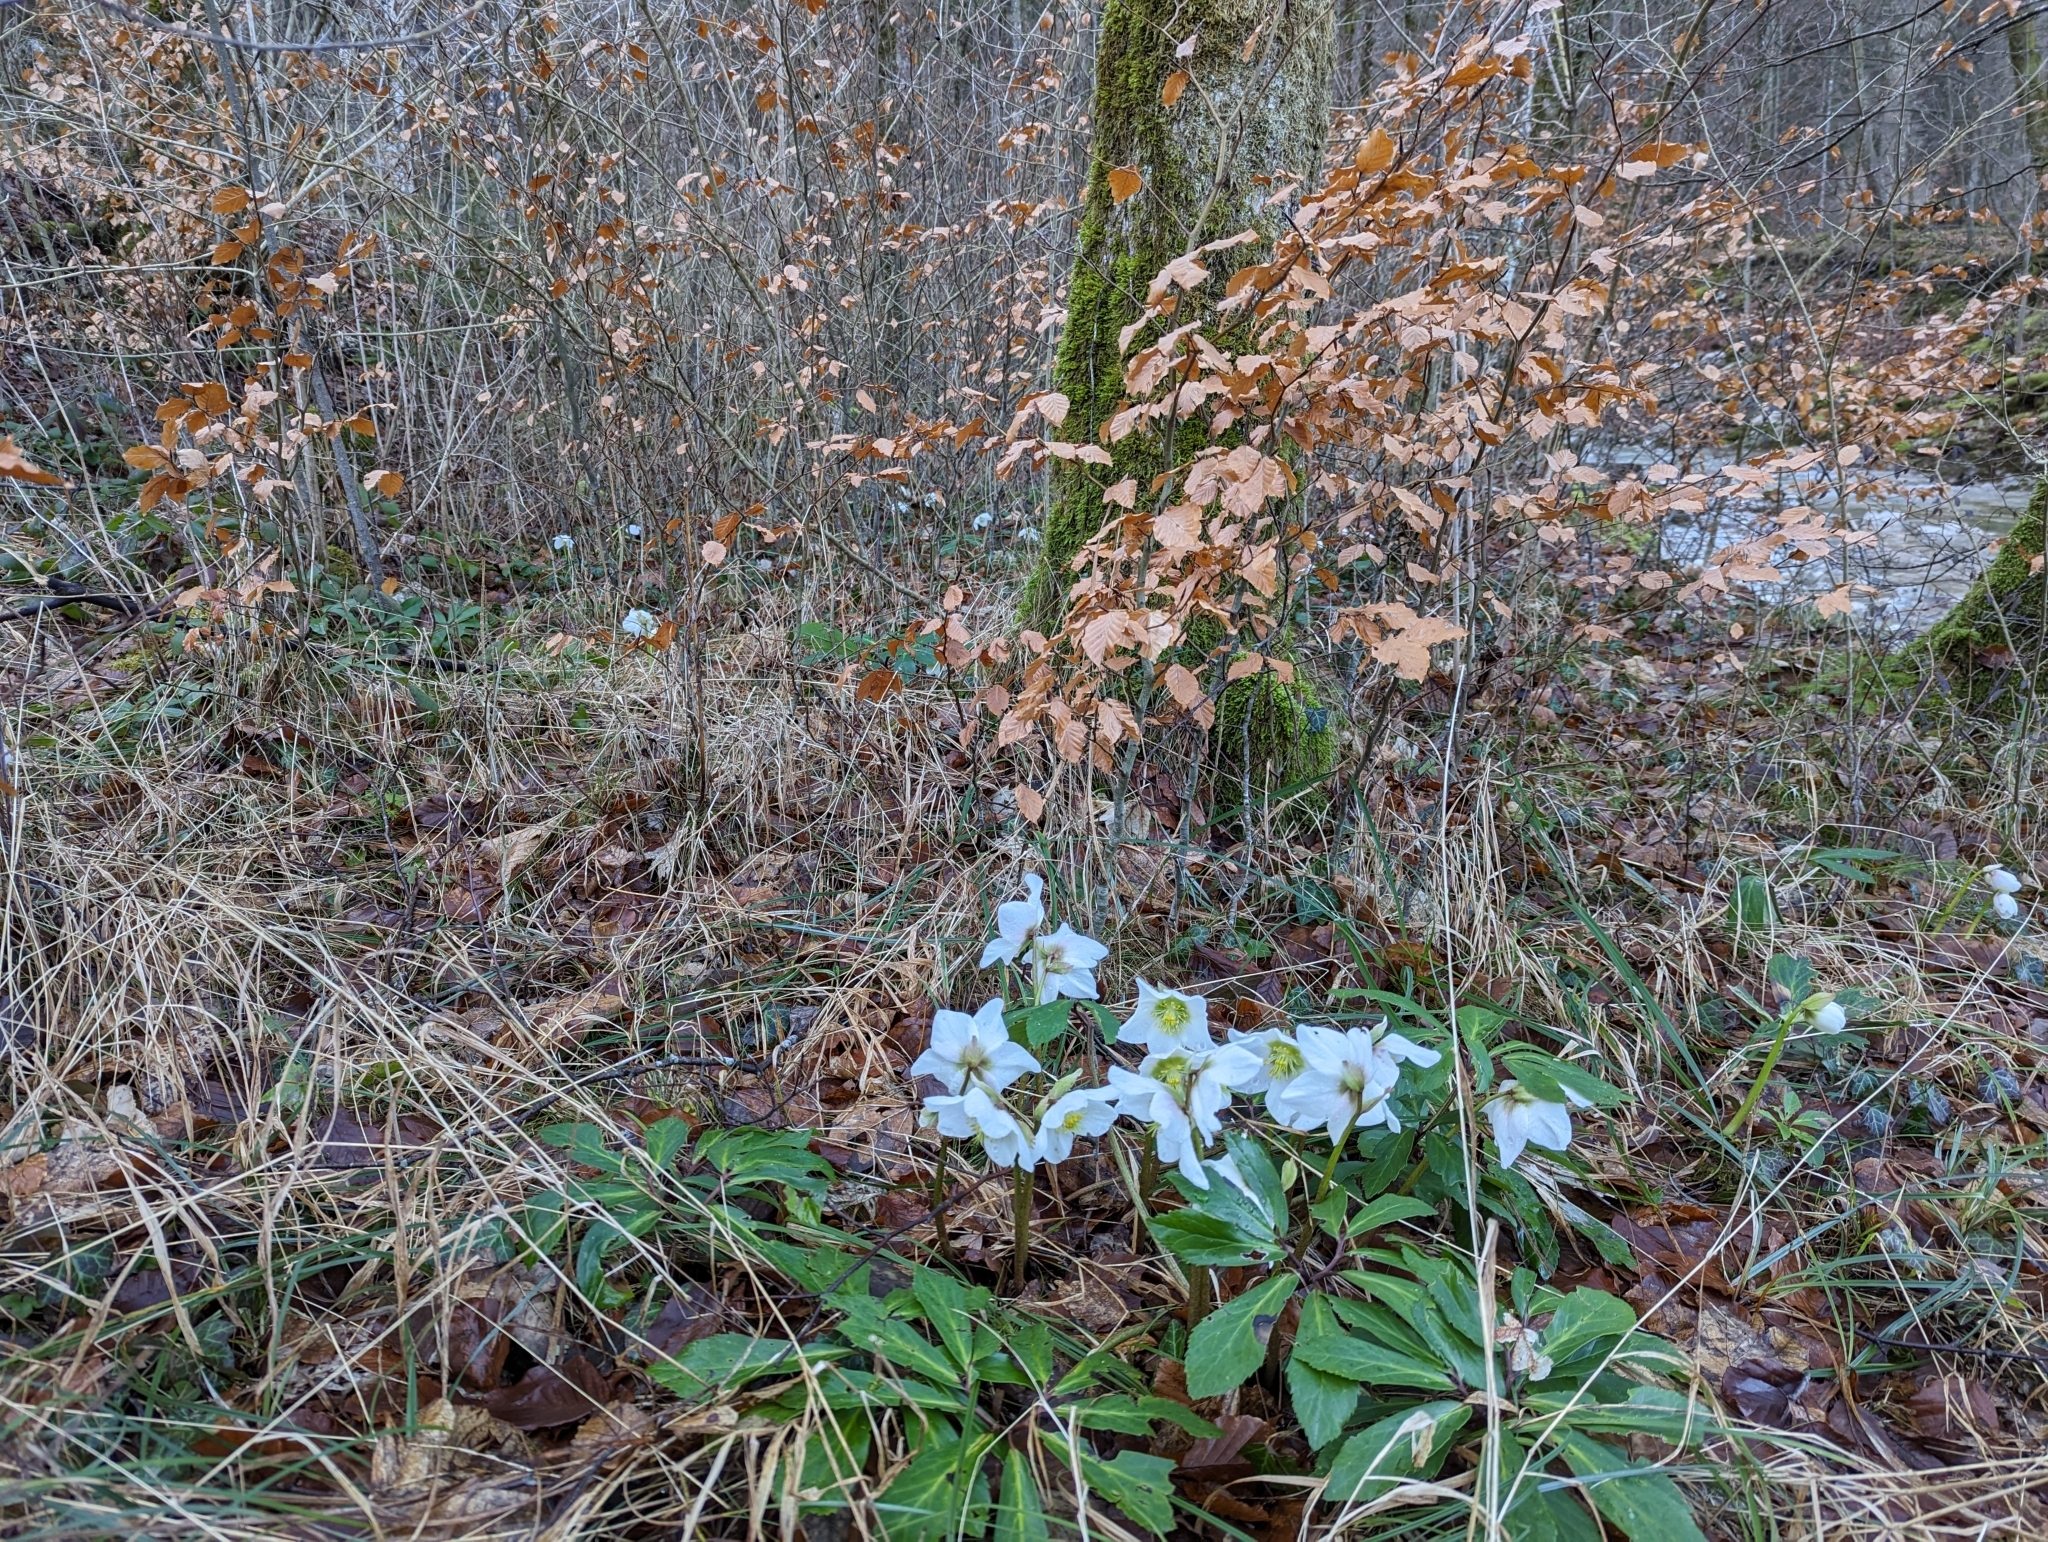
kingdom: Plantae
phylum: Tracheophyta
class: Magnoliopsida
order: Ranunculales
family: Ranunculaceae
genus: Helleborus
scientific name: Helleborus niger
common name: Black hellebore
